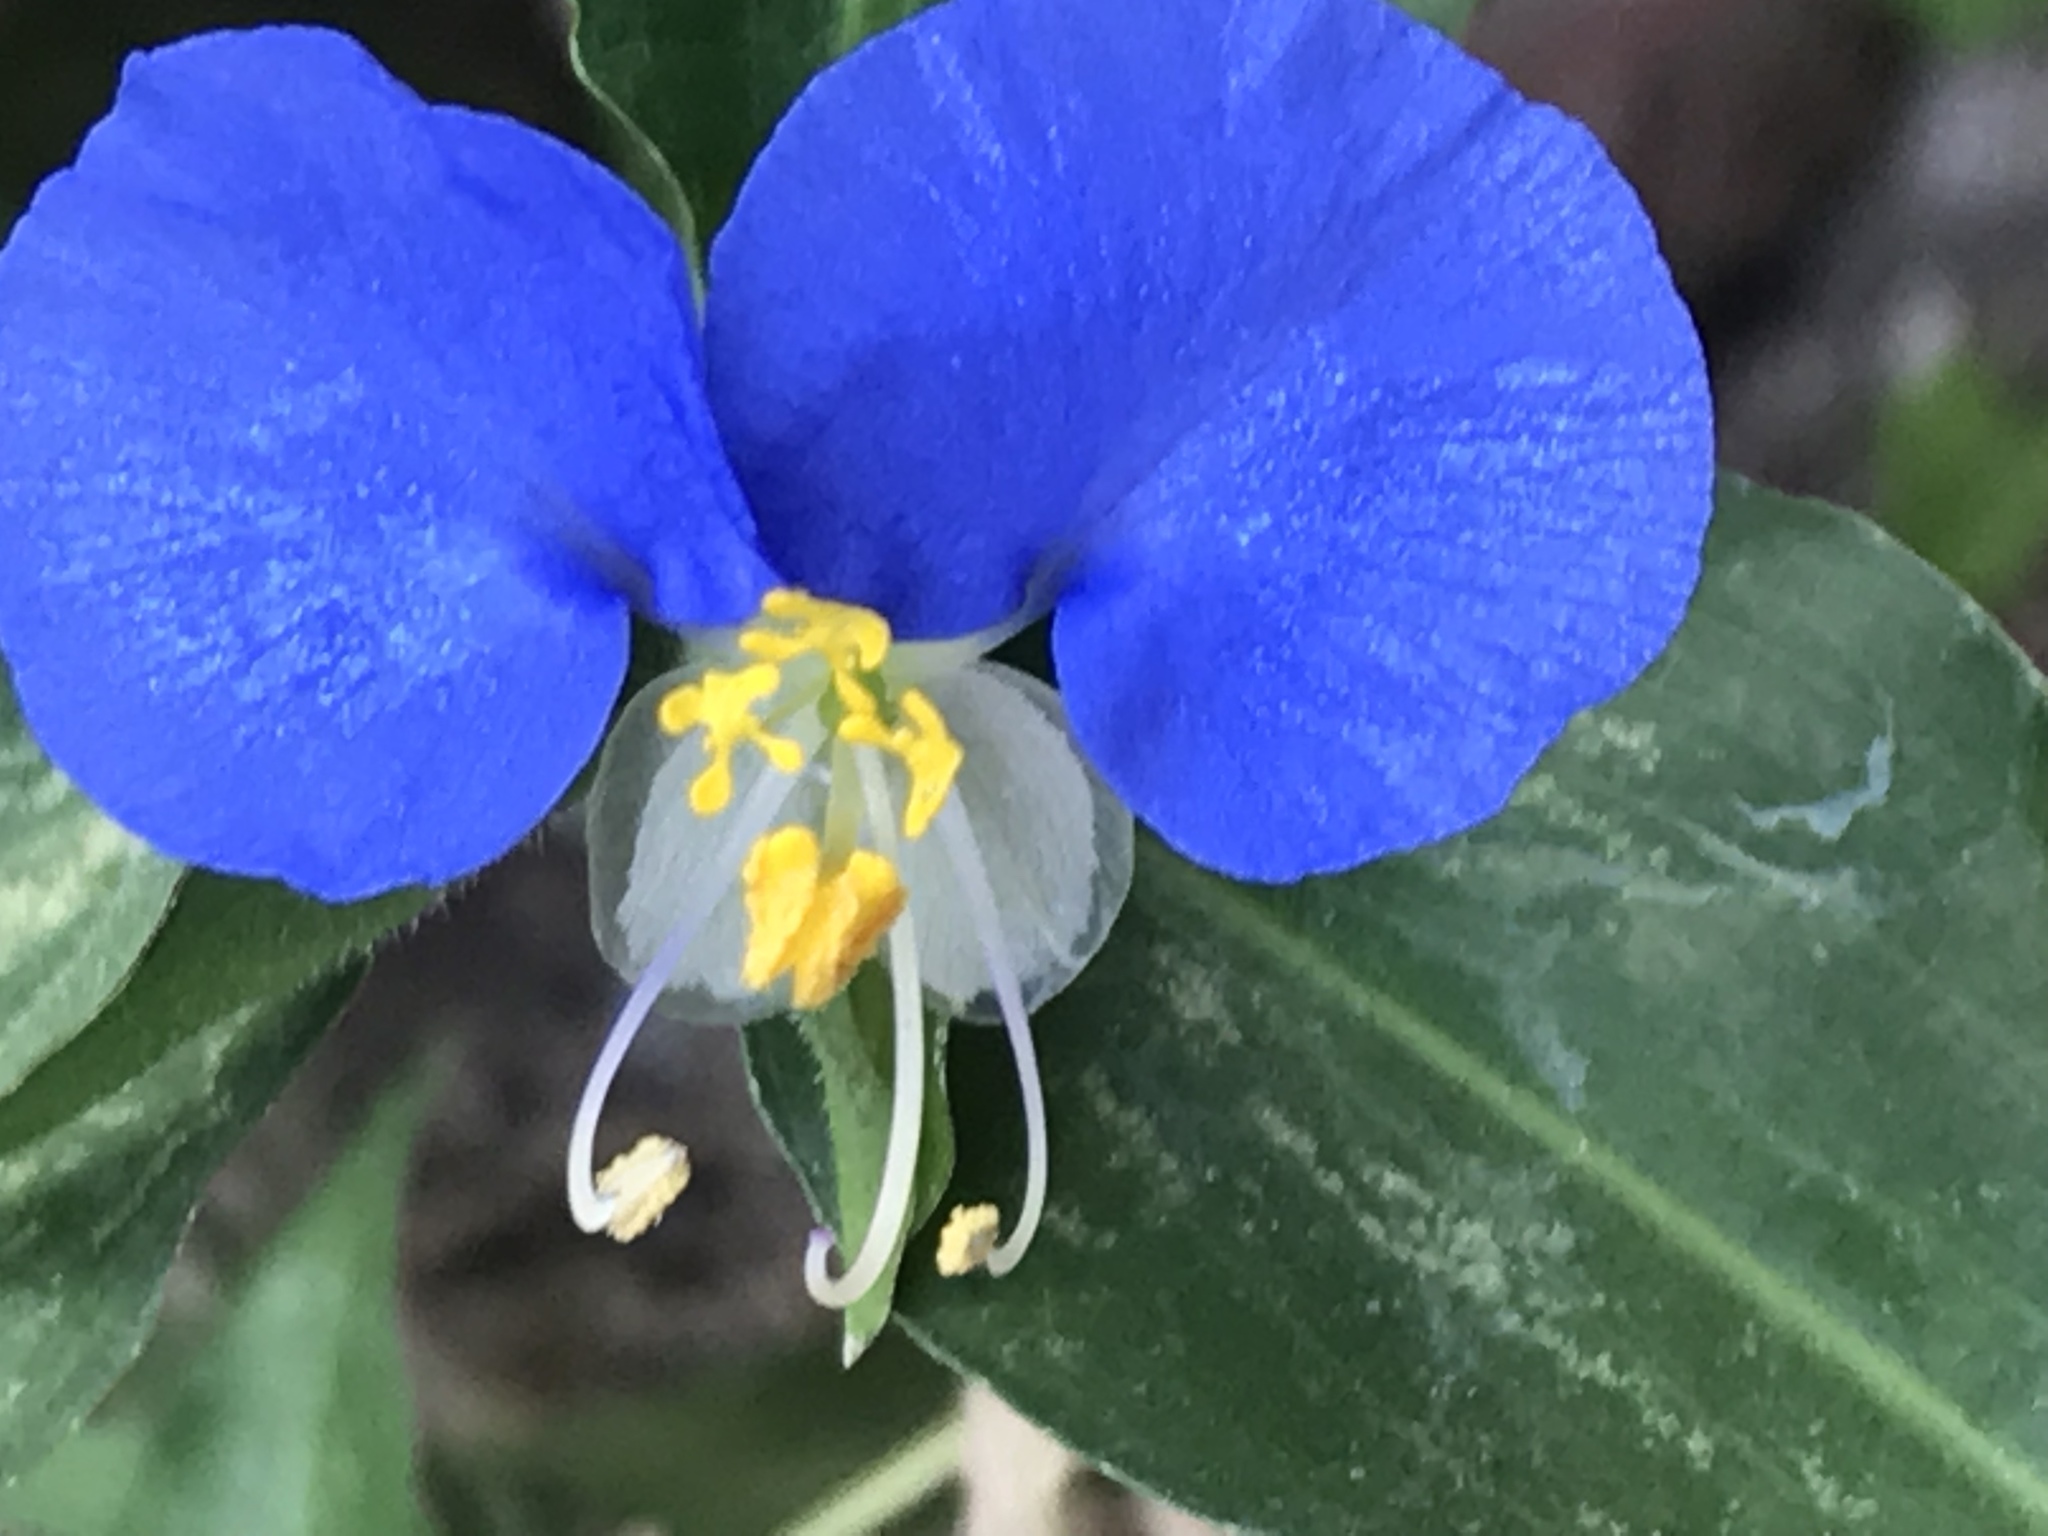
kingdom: Plantae
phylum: Tracheophyta
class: Liliopsida
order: Commelinales
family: Commelinaceae
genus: Commelina
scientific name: Commelina erecta
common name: Blousel blommetjie
